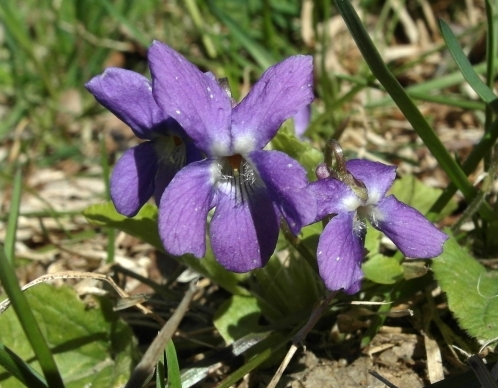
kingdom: Plantae
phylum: Tracheophyta
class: Magnoliopsida
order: Malpighiales
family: Violaceae
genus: Viola
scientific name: Viola hirta
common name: Hairy violet
